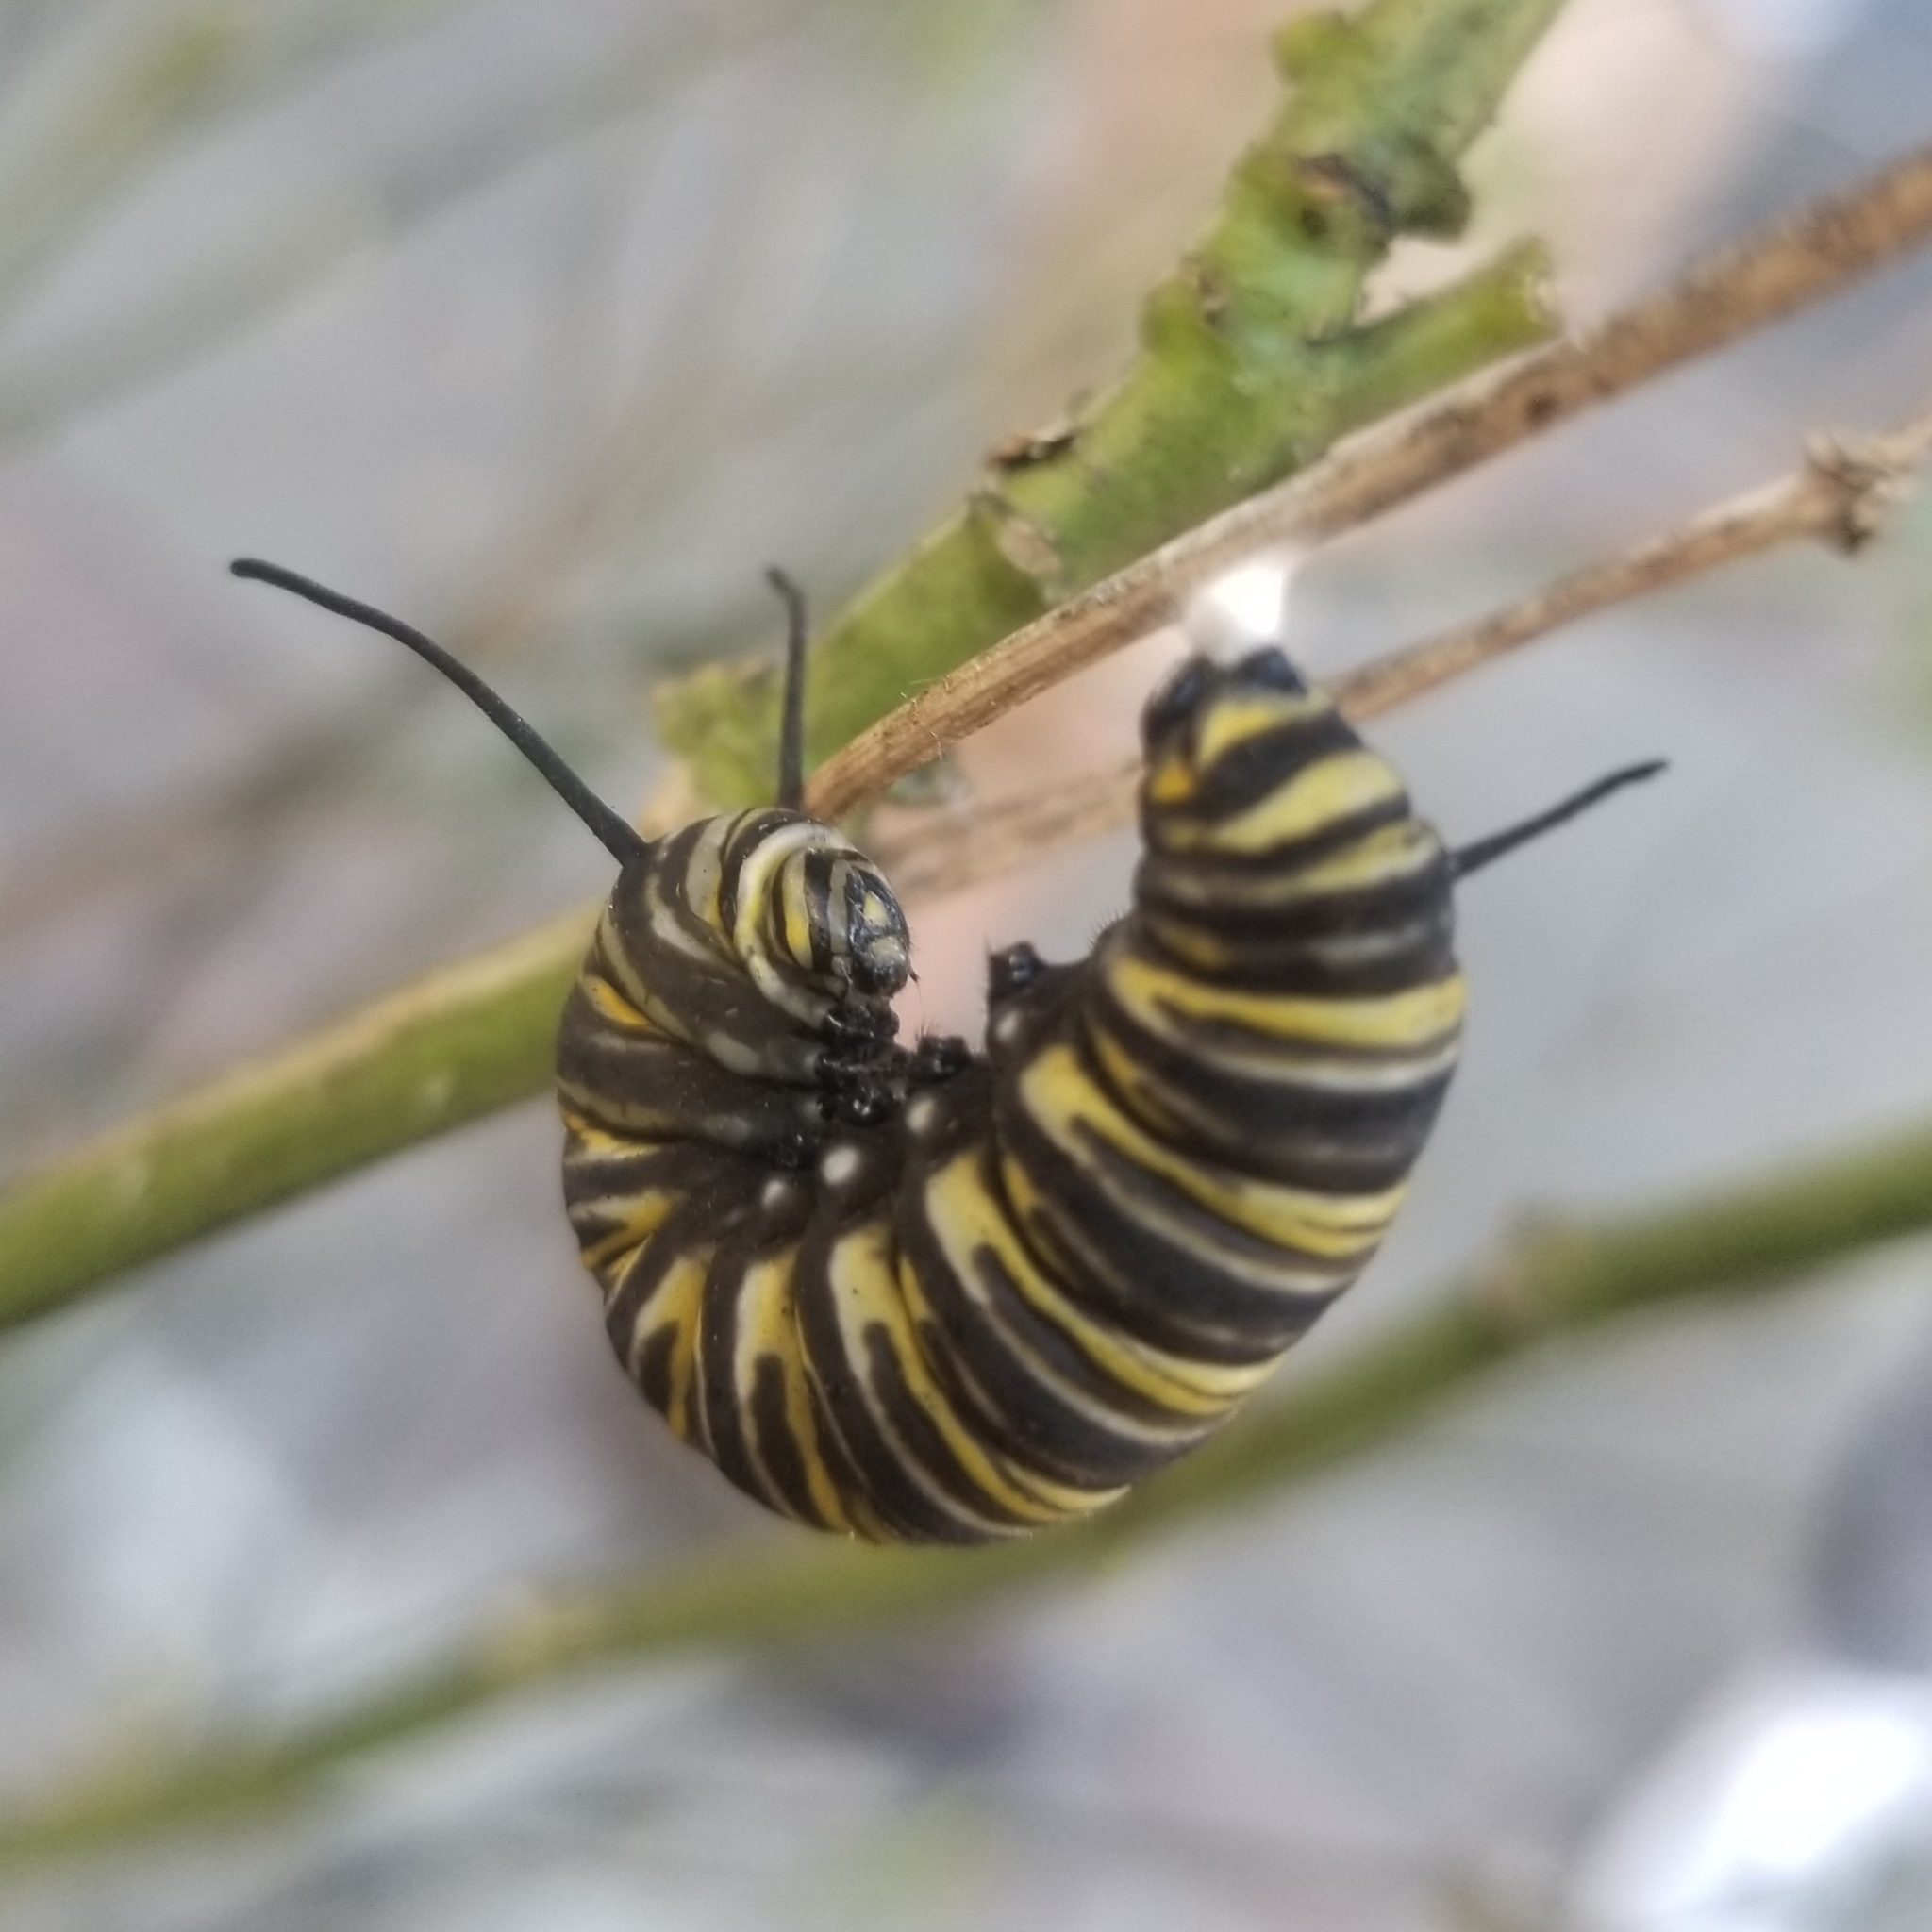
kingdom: Animalia
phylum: Arthropoda
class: Insecta
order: Lepidoptera
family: Nymphalidae
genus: Danaus
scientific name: Danaus plexippus
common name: Monarch
